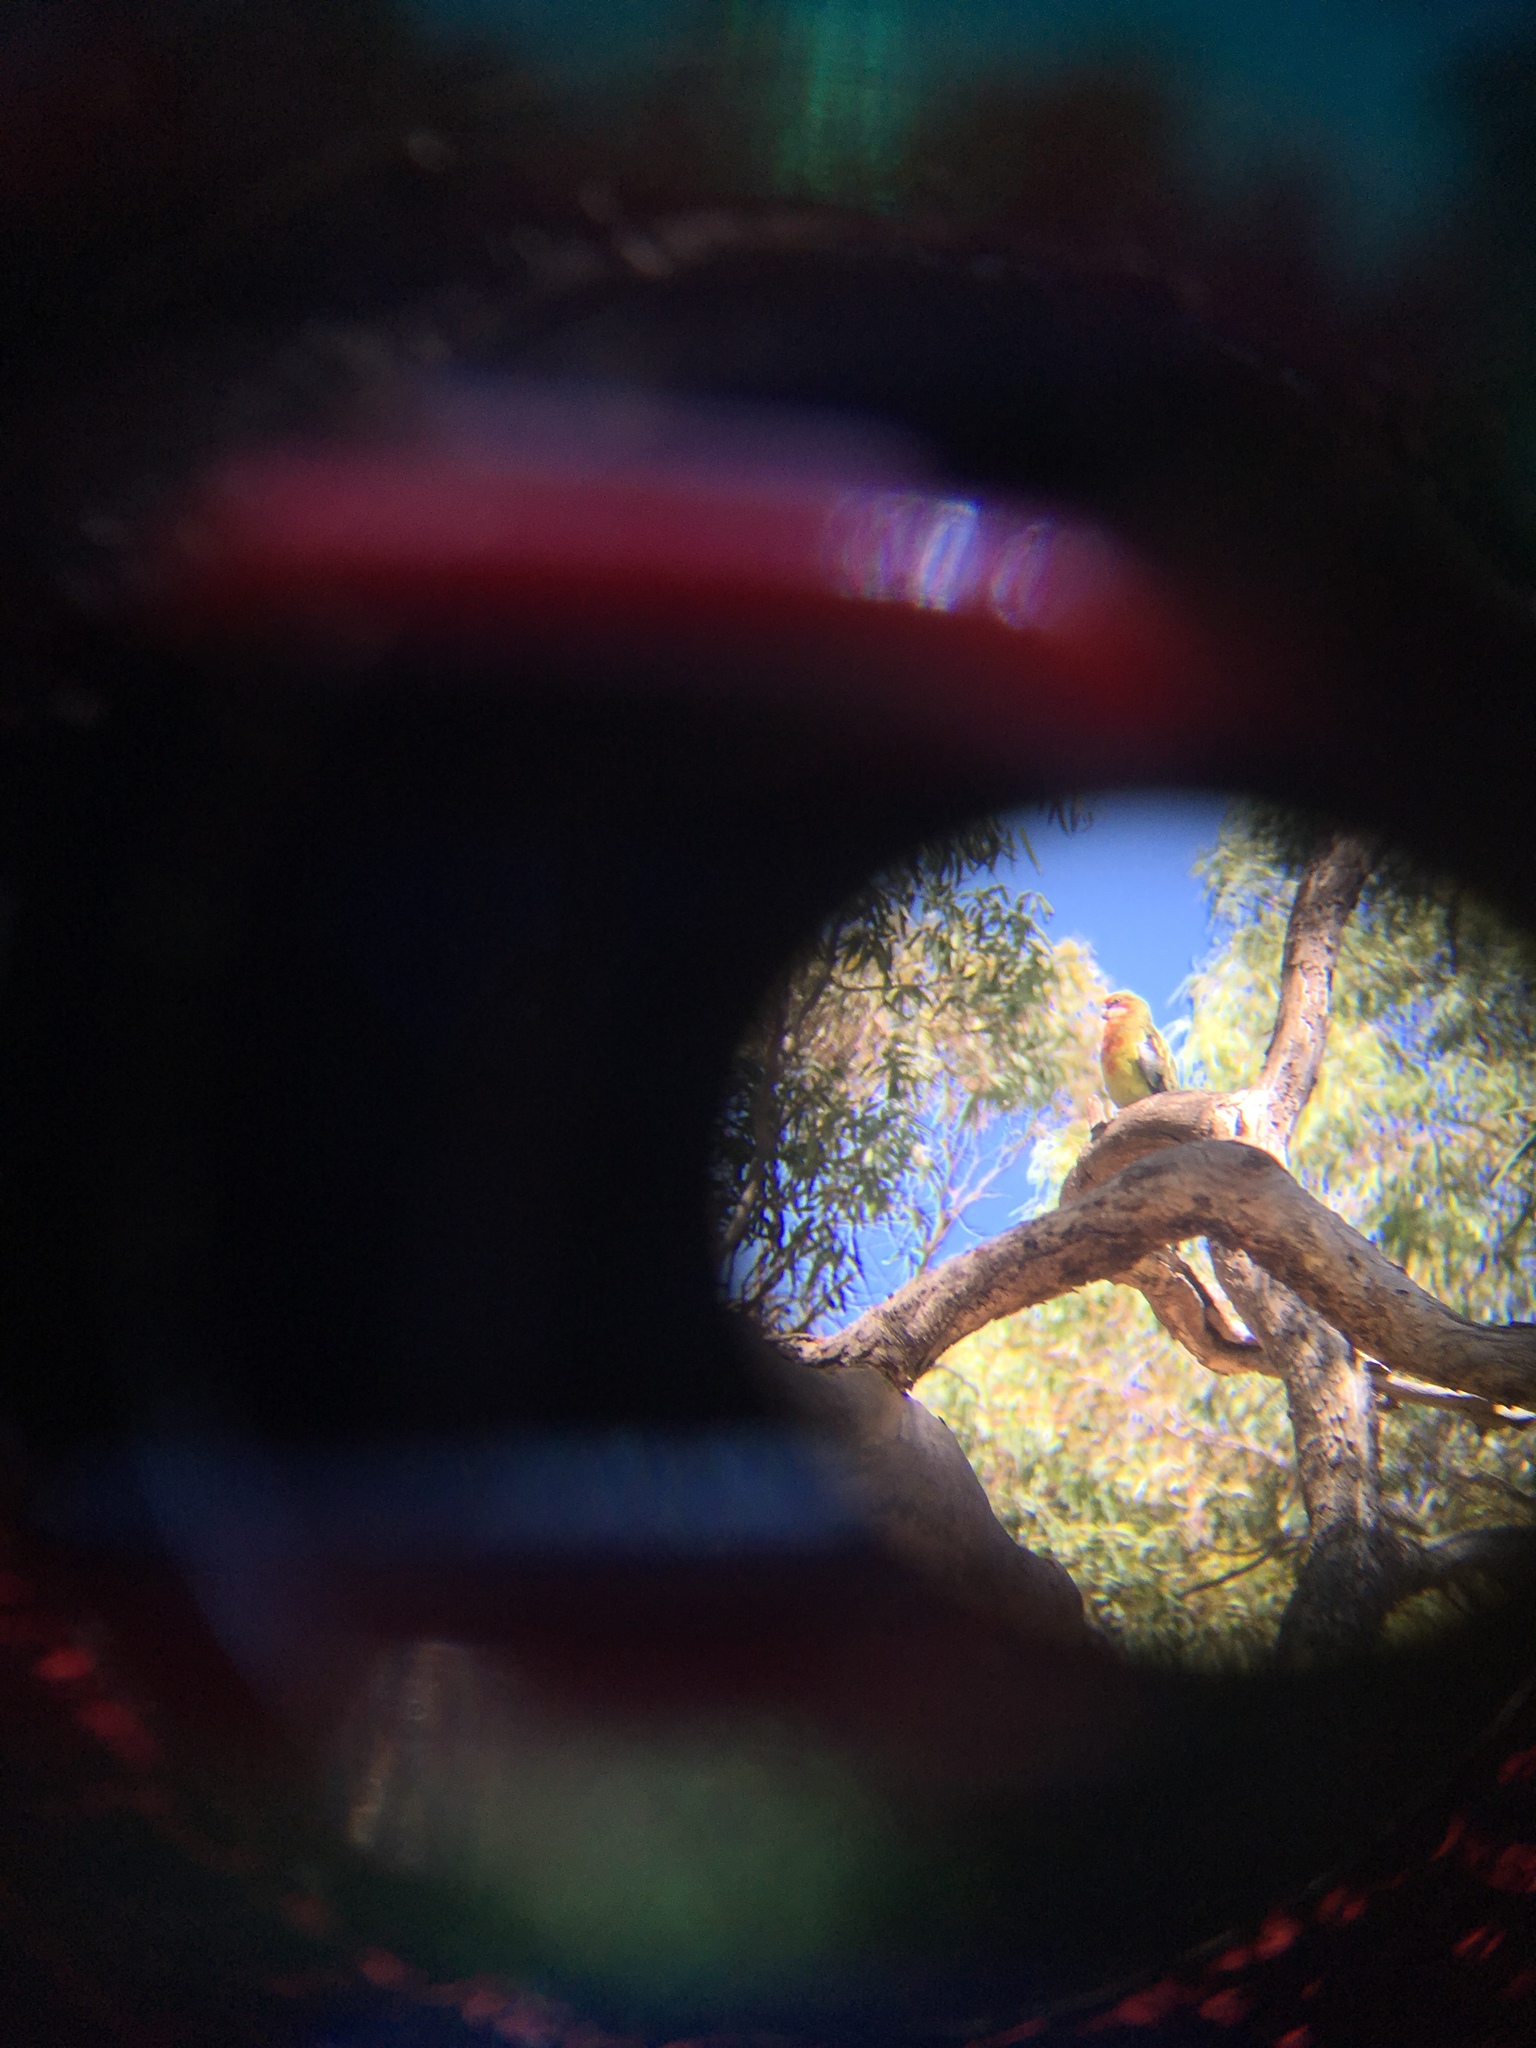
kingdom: Animalia
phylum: Chordata
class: Aves
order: Psittaciformes
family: Psittacidae
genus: Platycercus
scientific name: Platycercus elegans
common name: Crimson rosella
